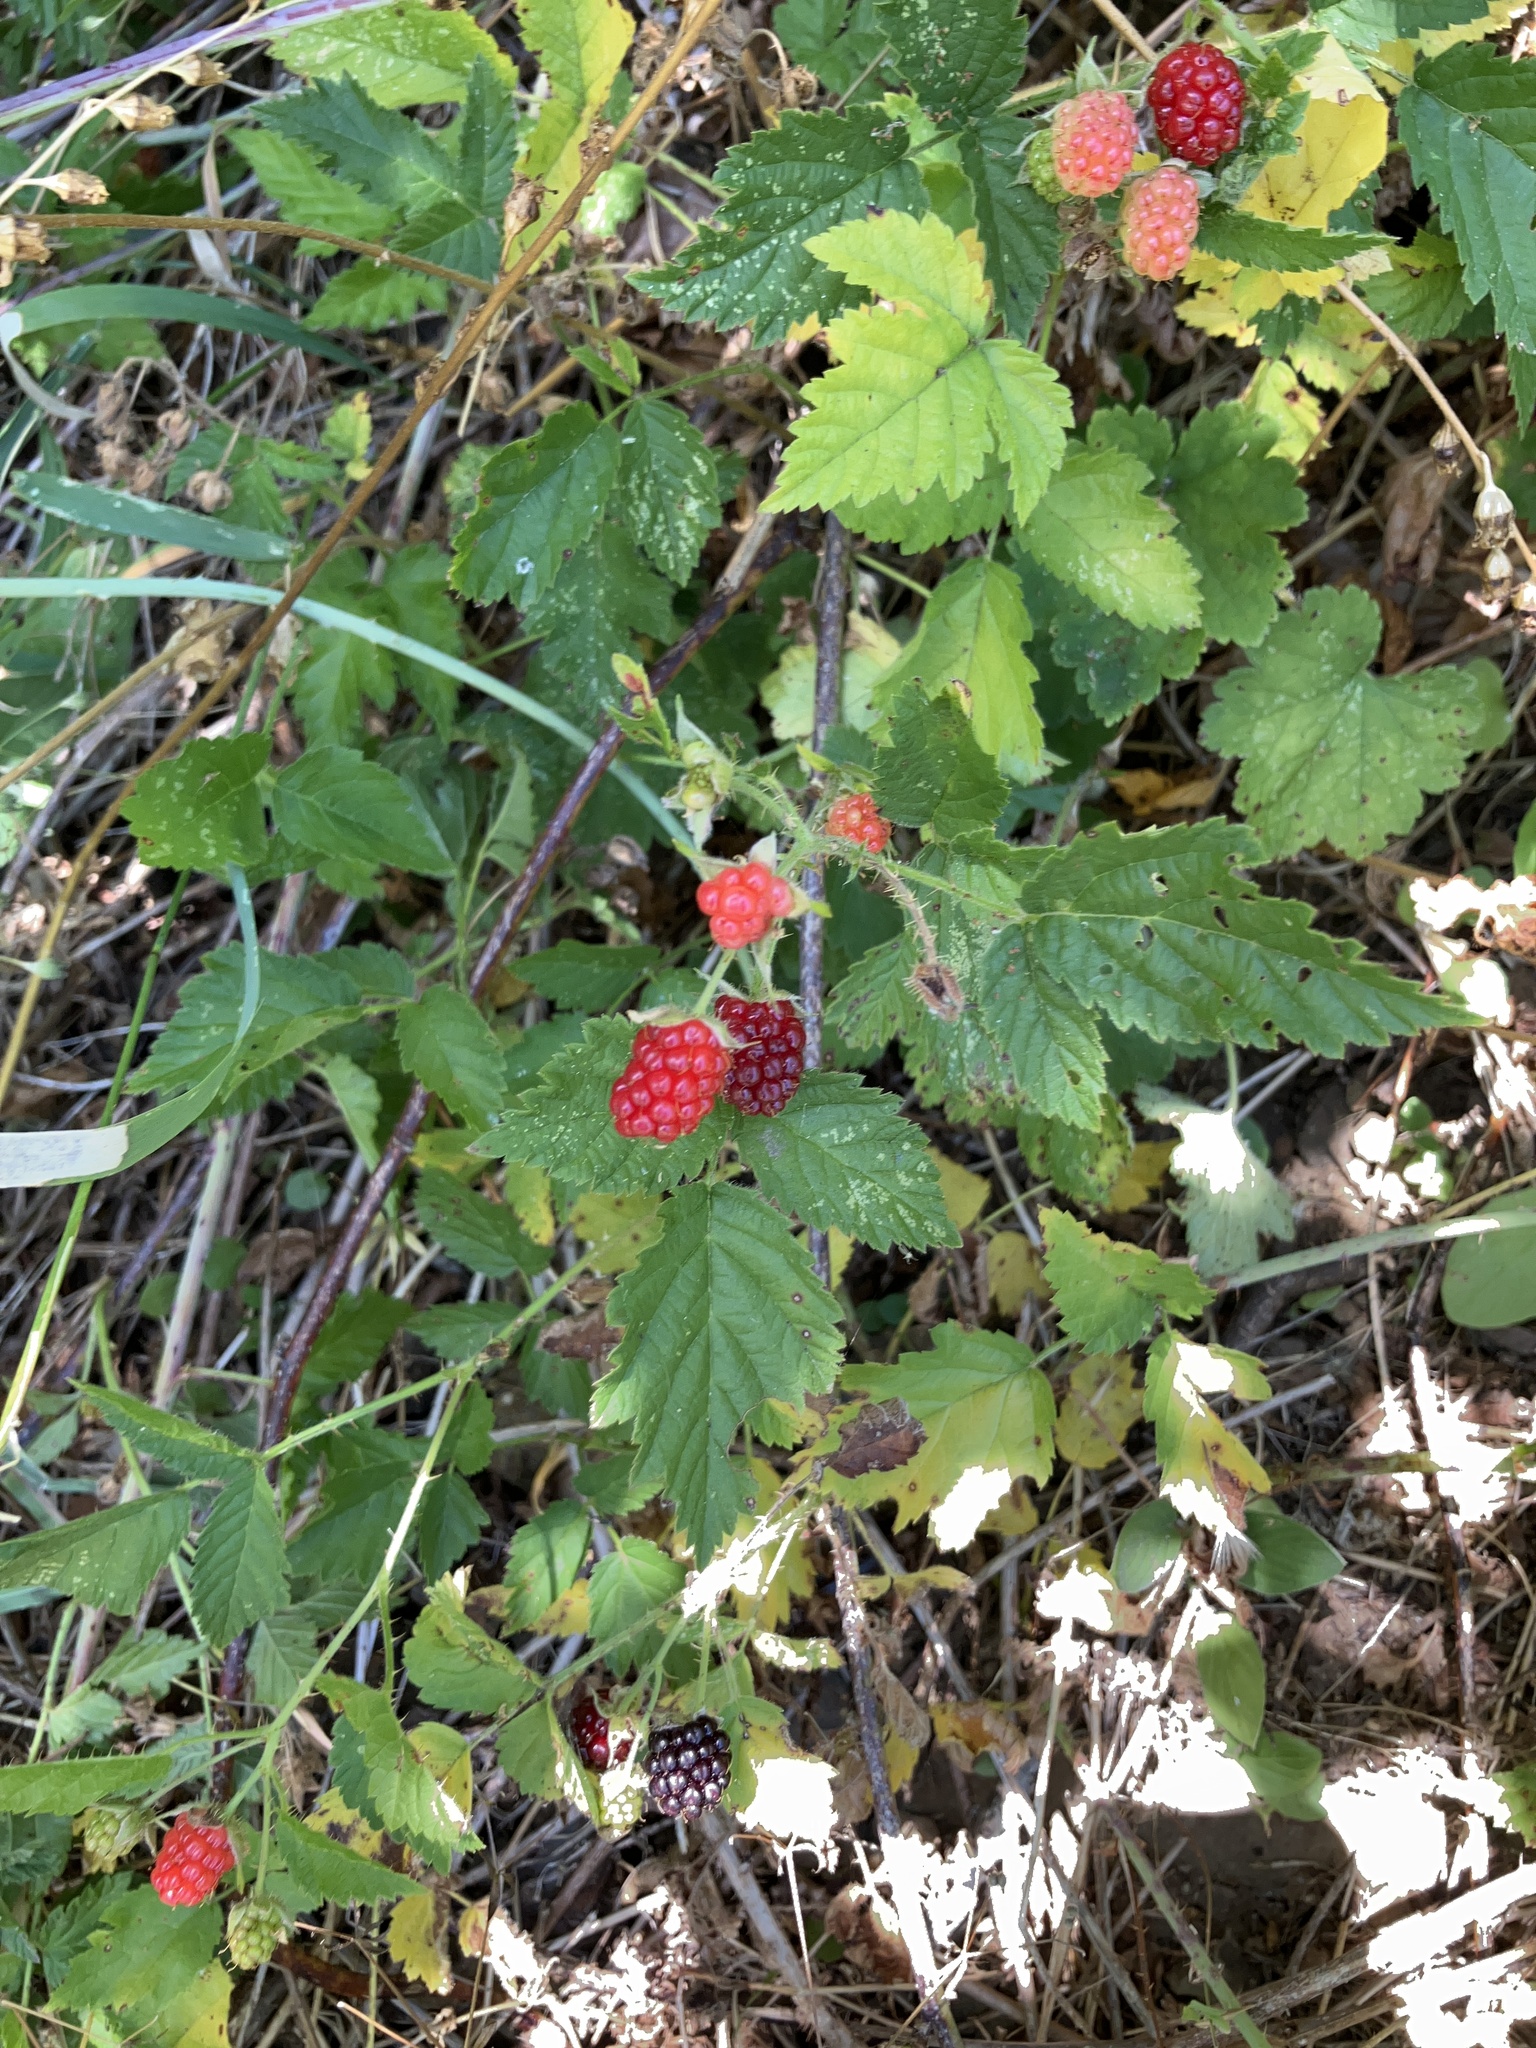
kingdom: Plantae
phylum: Tracheophyta
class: Magnoliopsida
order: Rosales
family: Rosaceae
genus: Rubus
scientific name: Rubus ursinus
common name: Pacific blackberry
